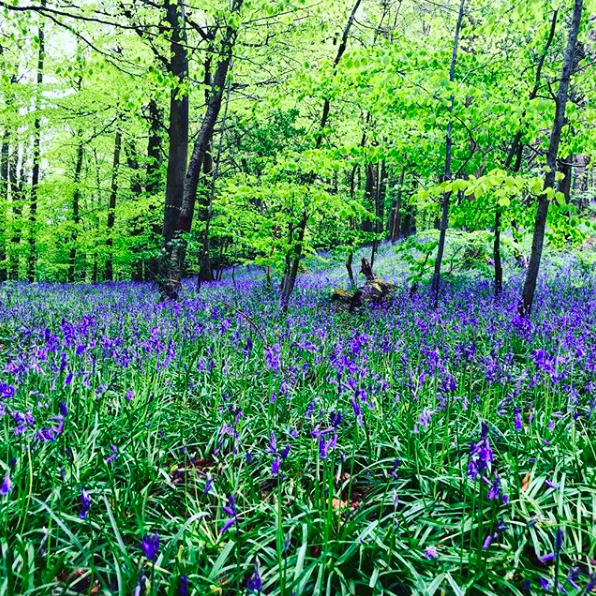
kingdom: Plantae
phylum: Tracheophyta
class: Liliopsida
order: Asparagales
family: Asparagaceae
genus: Hyacinthoides
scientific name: Hyacinthoides non-scripta
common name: Bluebell
